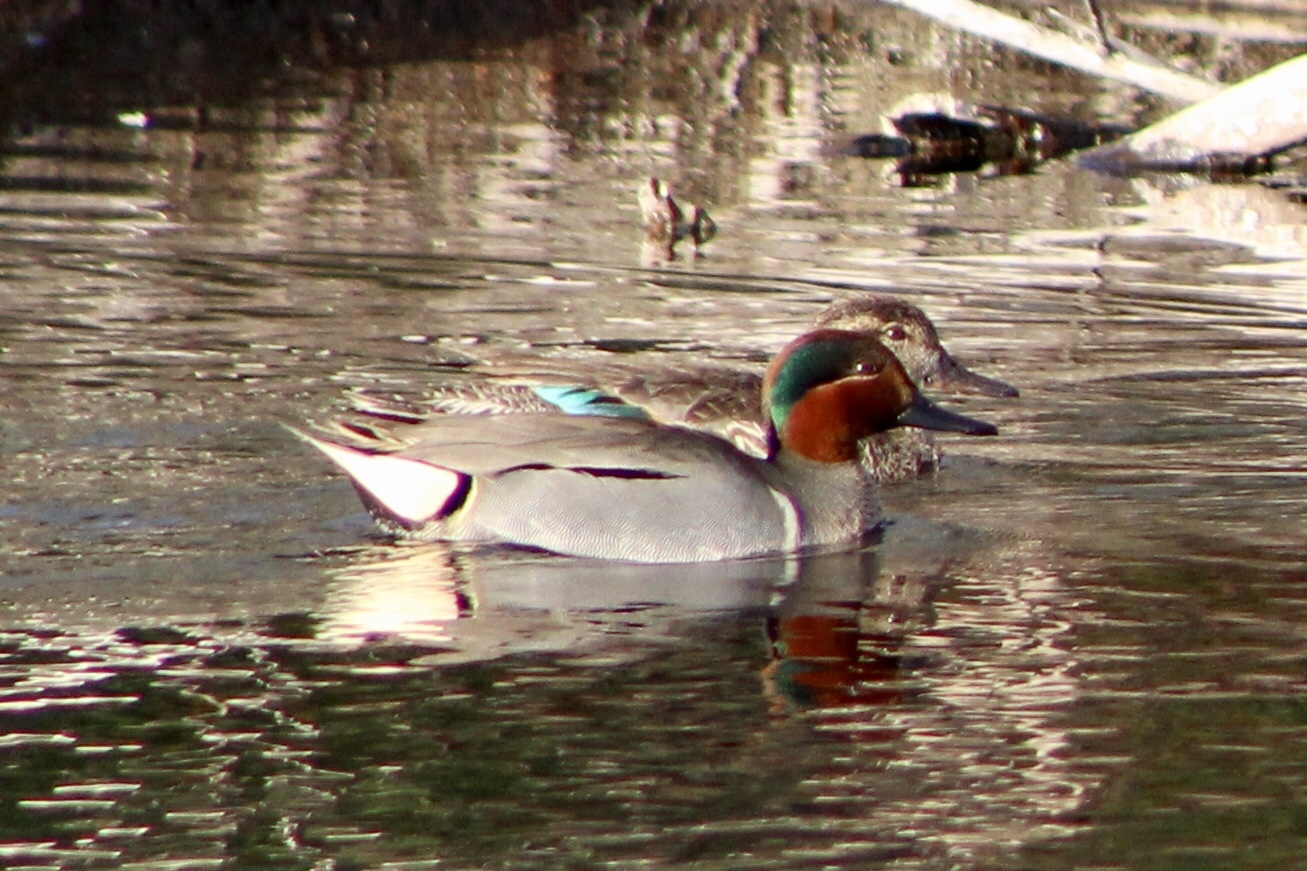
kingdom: Animalia
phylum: Chordata
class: Aves
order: Anseriformes
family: Anatidae
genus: Anas
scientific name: Anas crecca
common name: Eurasian teal
